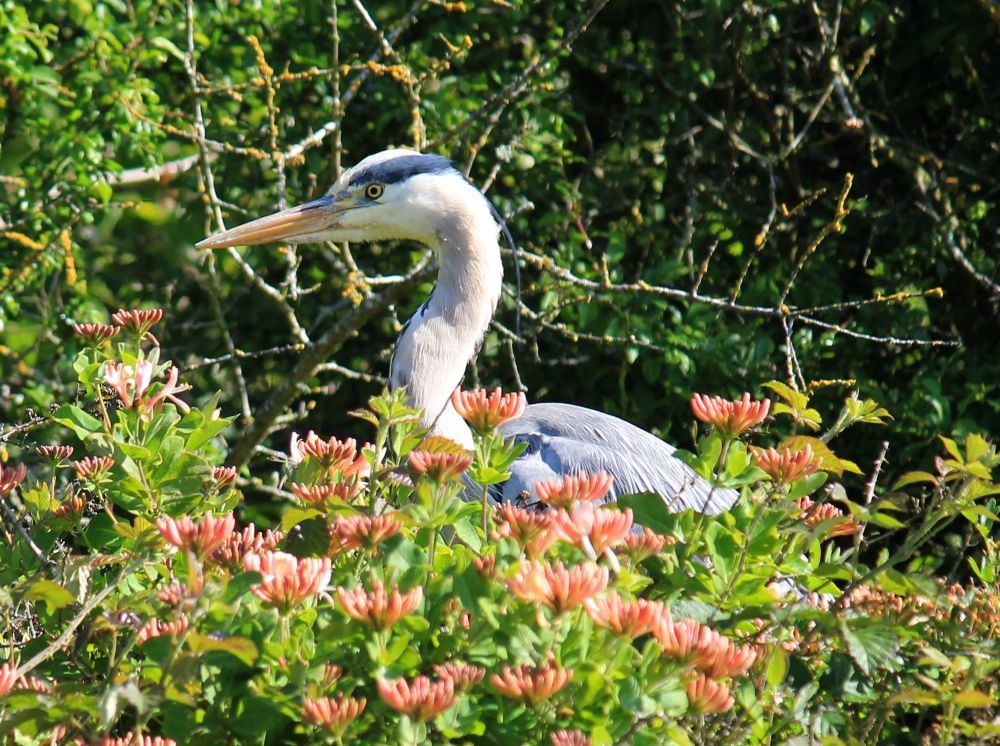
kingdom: Animalia
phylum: Chordata
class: Aves
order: Pelecaniformes
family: Ardeidae
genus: Ardea
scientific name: Ardea cinerea
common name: Grey heron
